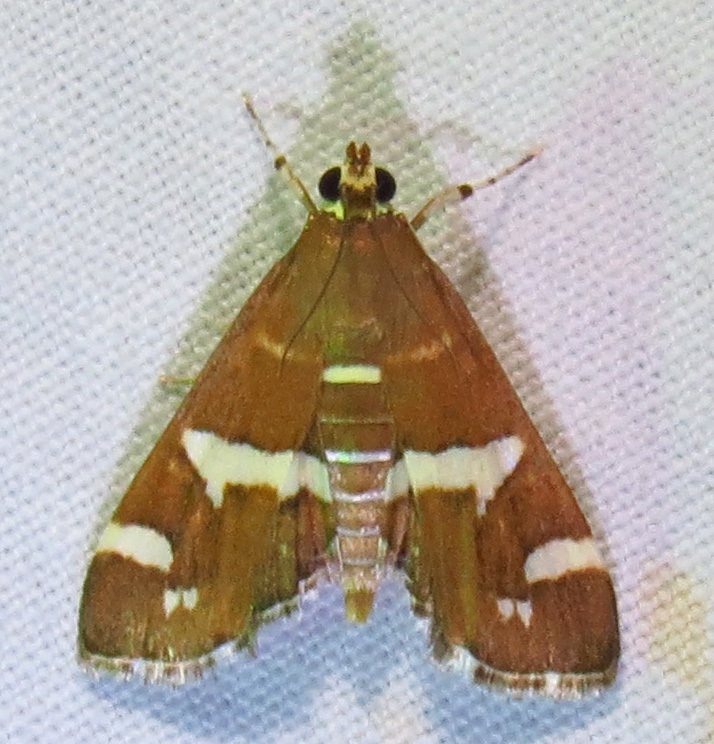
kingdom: Animalia
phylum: Arthropoda
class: Insecta
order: Lepidoptera
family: Crambidae
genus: Spoladea
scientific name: Spoladea recurvalis
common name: Beet webworm moth
